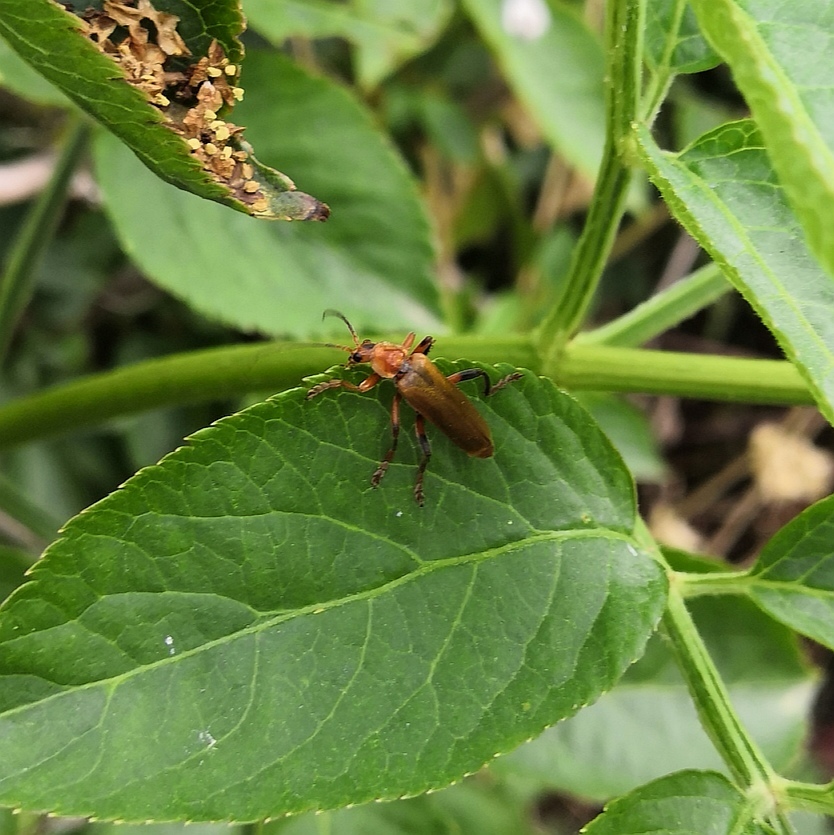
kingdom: Animalia
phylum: Arthropoda
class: Insecta
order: Coleoptera
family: Cantharidae
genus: Cantharis
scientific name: Cantharis livida
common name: Livid soldier beetle
